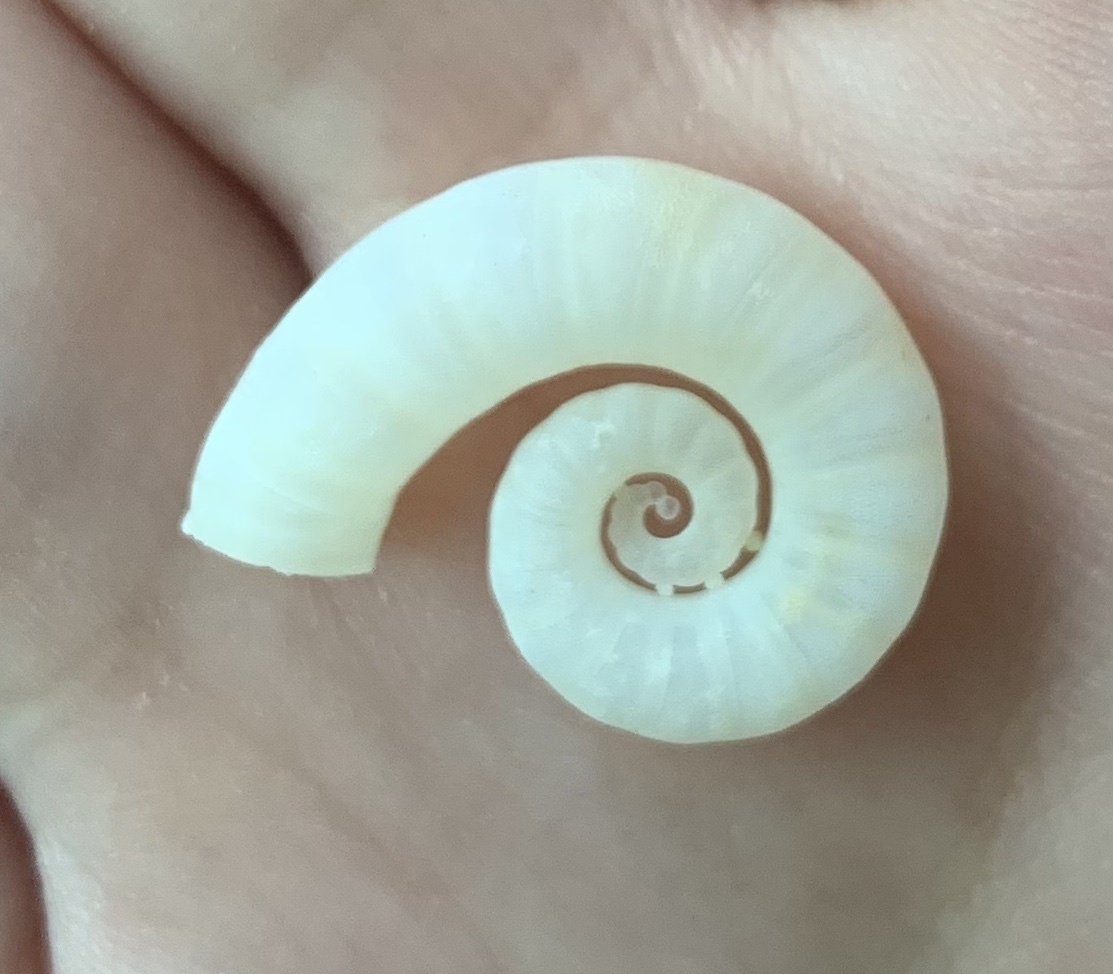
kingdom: Animalia
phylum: Mollusca
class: Cephalopoda
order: Spirulida
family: Spirulidae
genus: Spirula
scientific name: Spirula spirula
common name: Ram's horn squid
